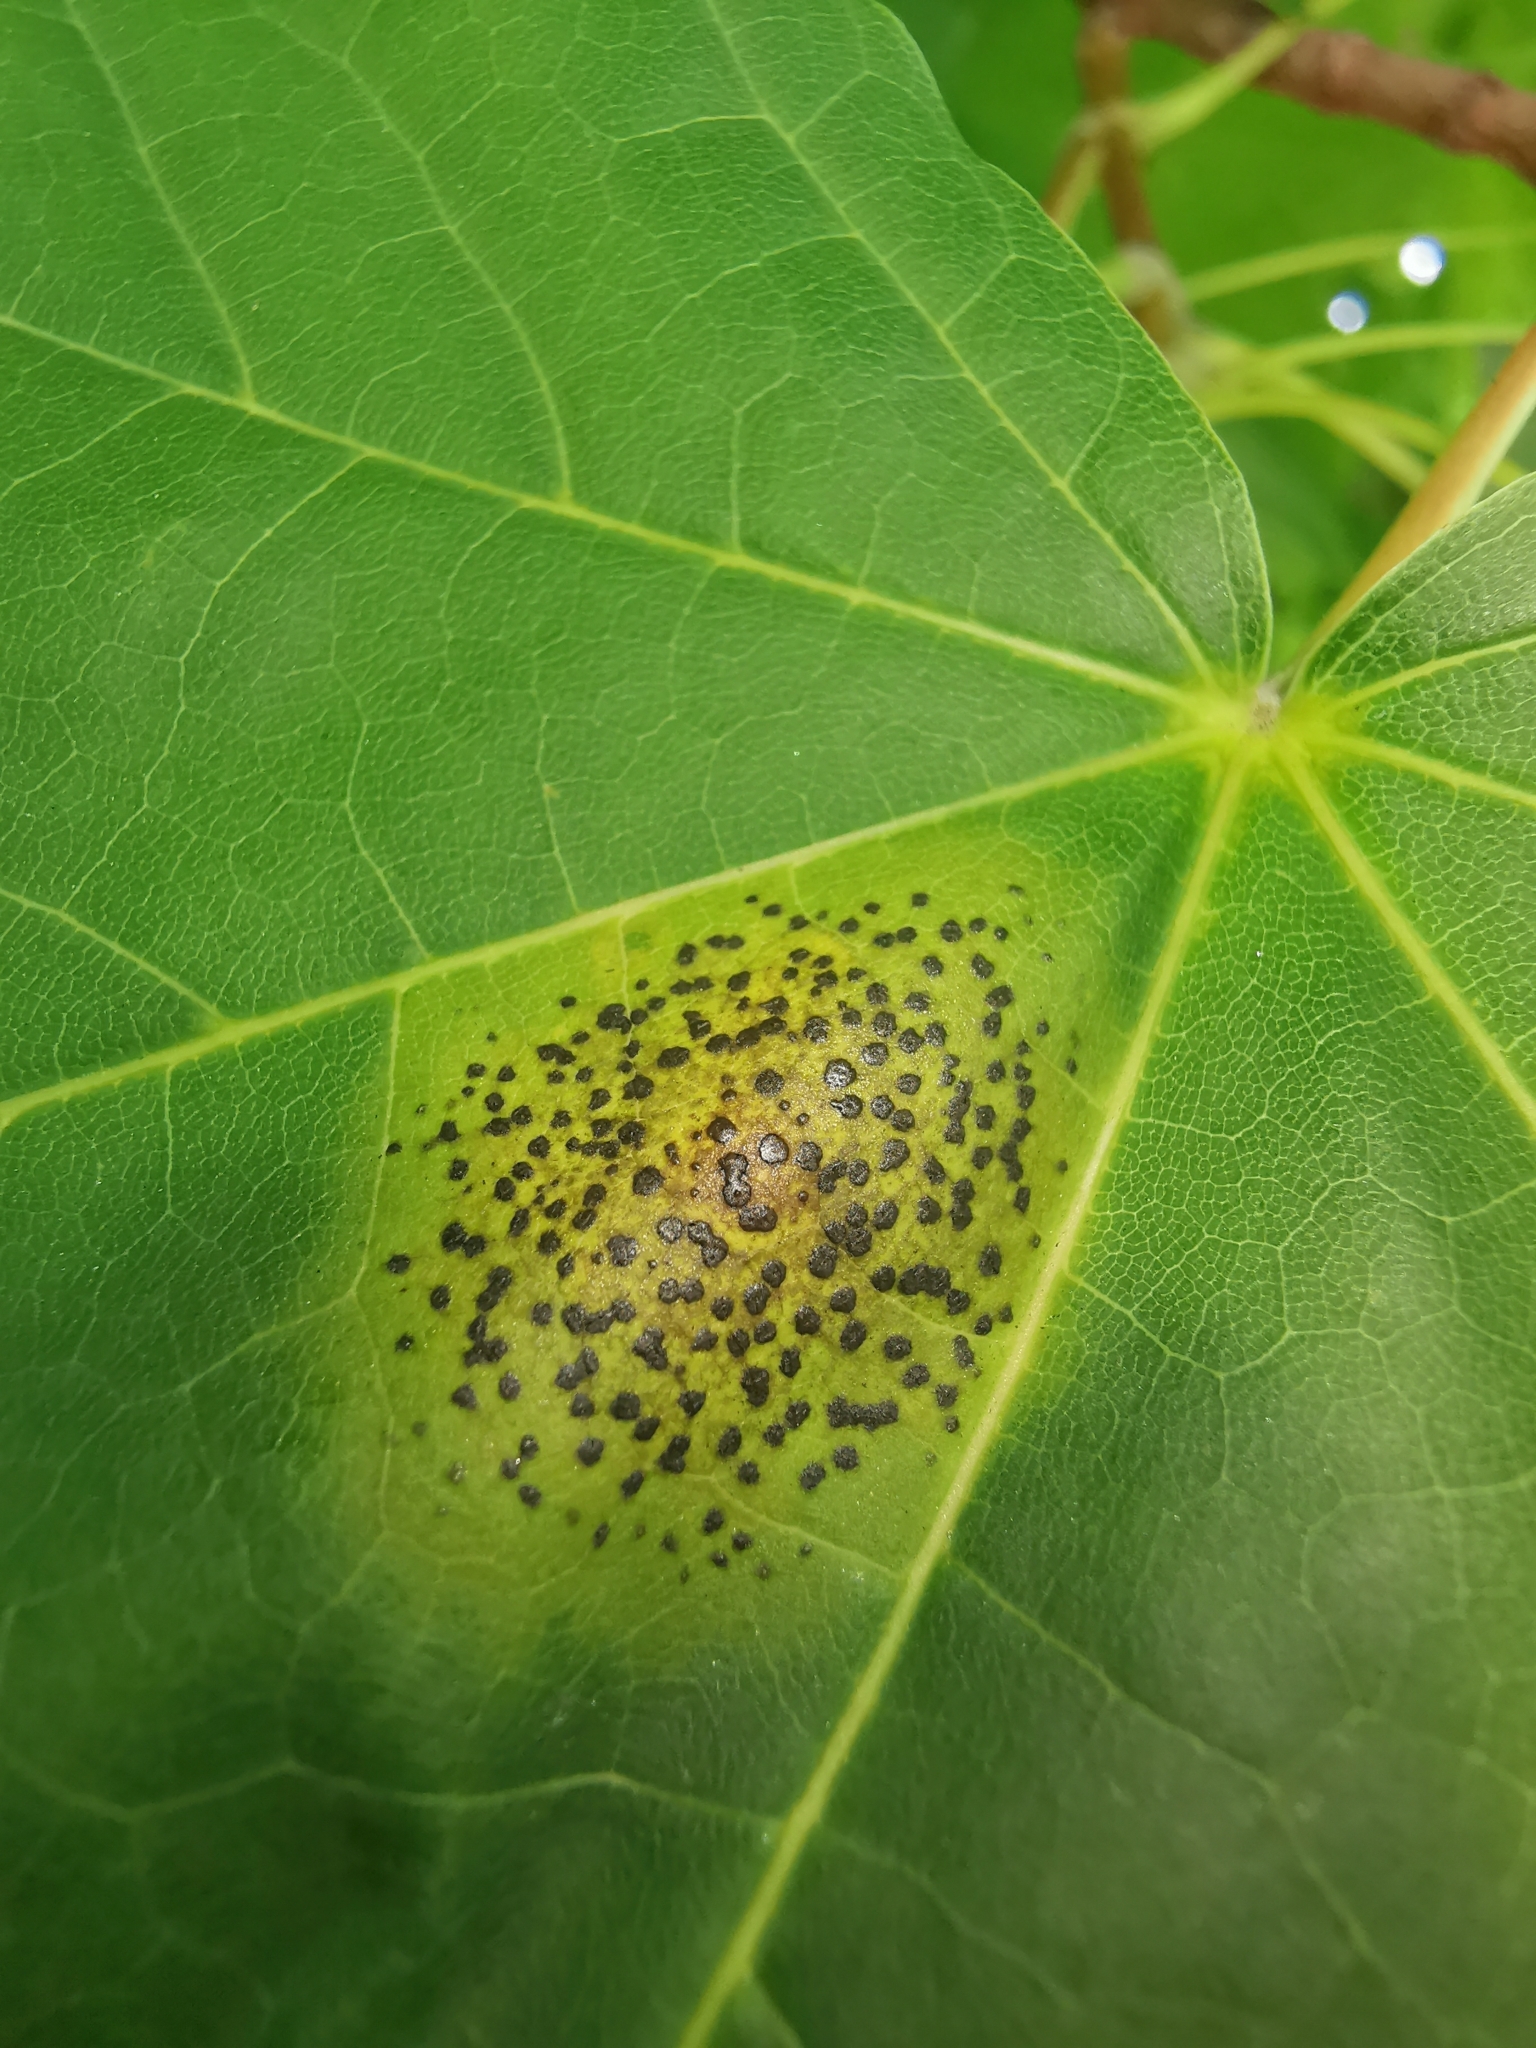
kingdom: Fungi
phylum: Ascomycota
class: Leotiomycetes
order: Rhytismatales
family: Rhytismataceae
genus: Rhytisma
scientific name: Rhytisma acerinum
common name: European tar spot
